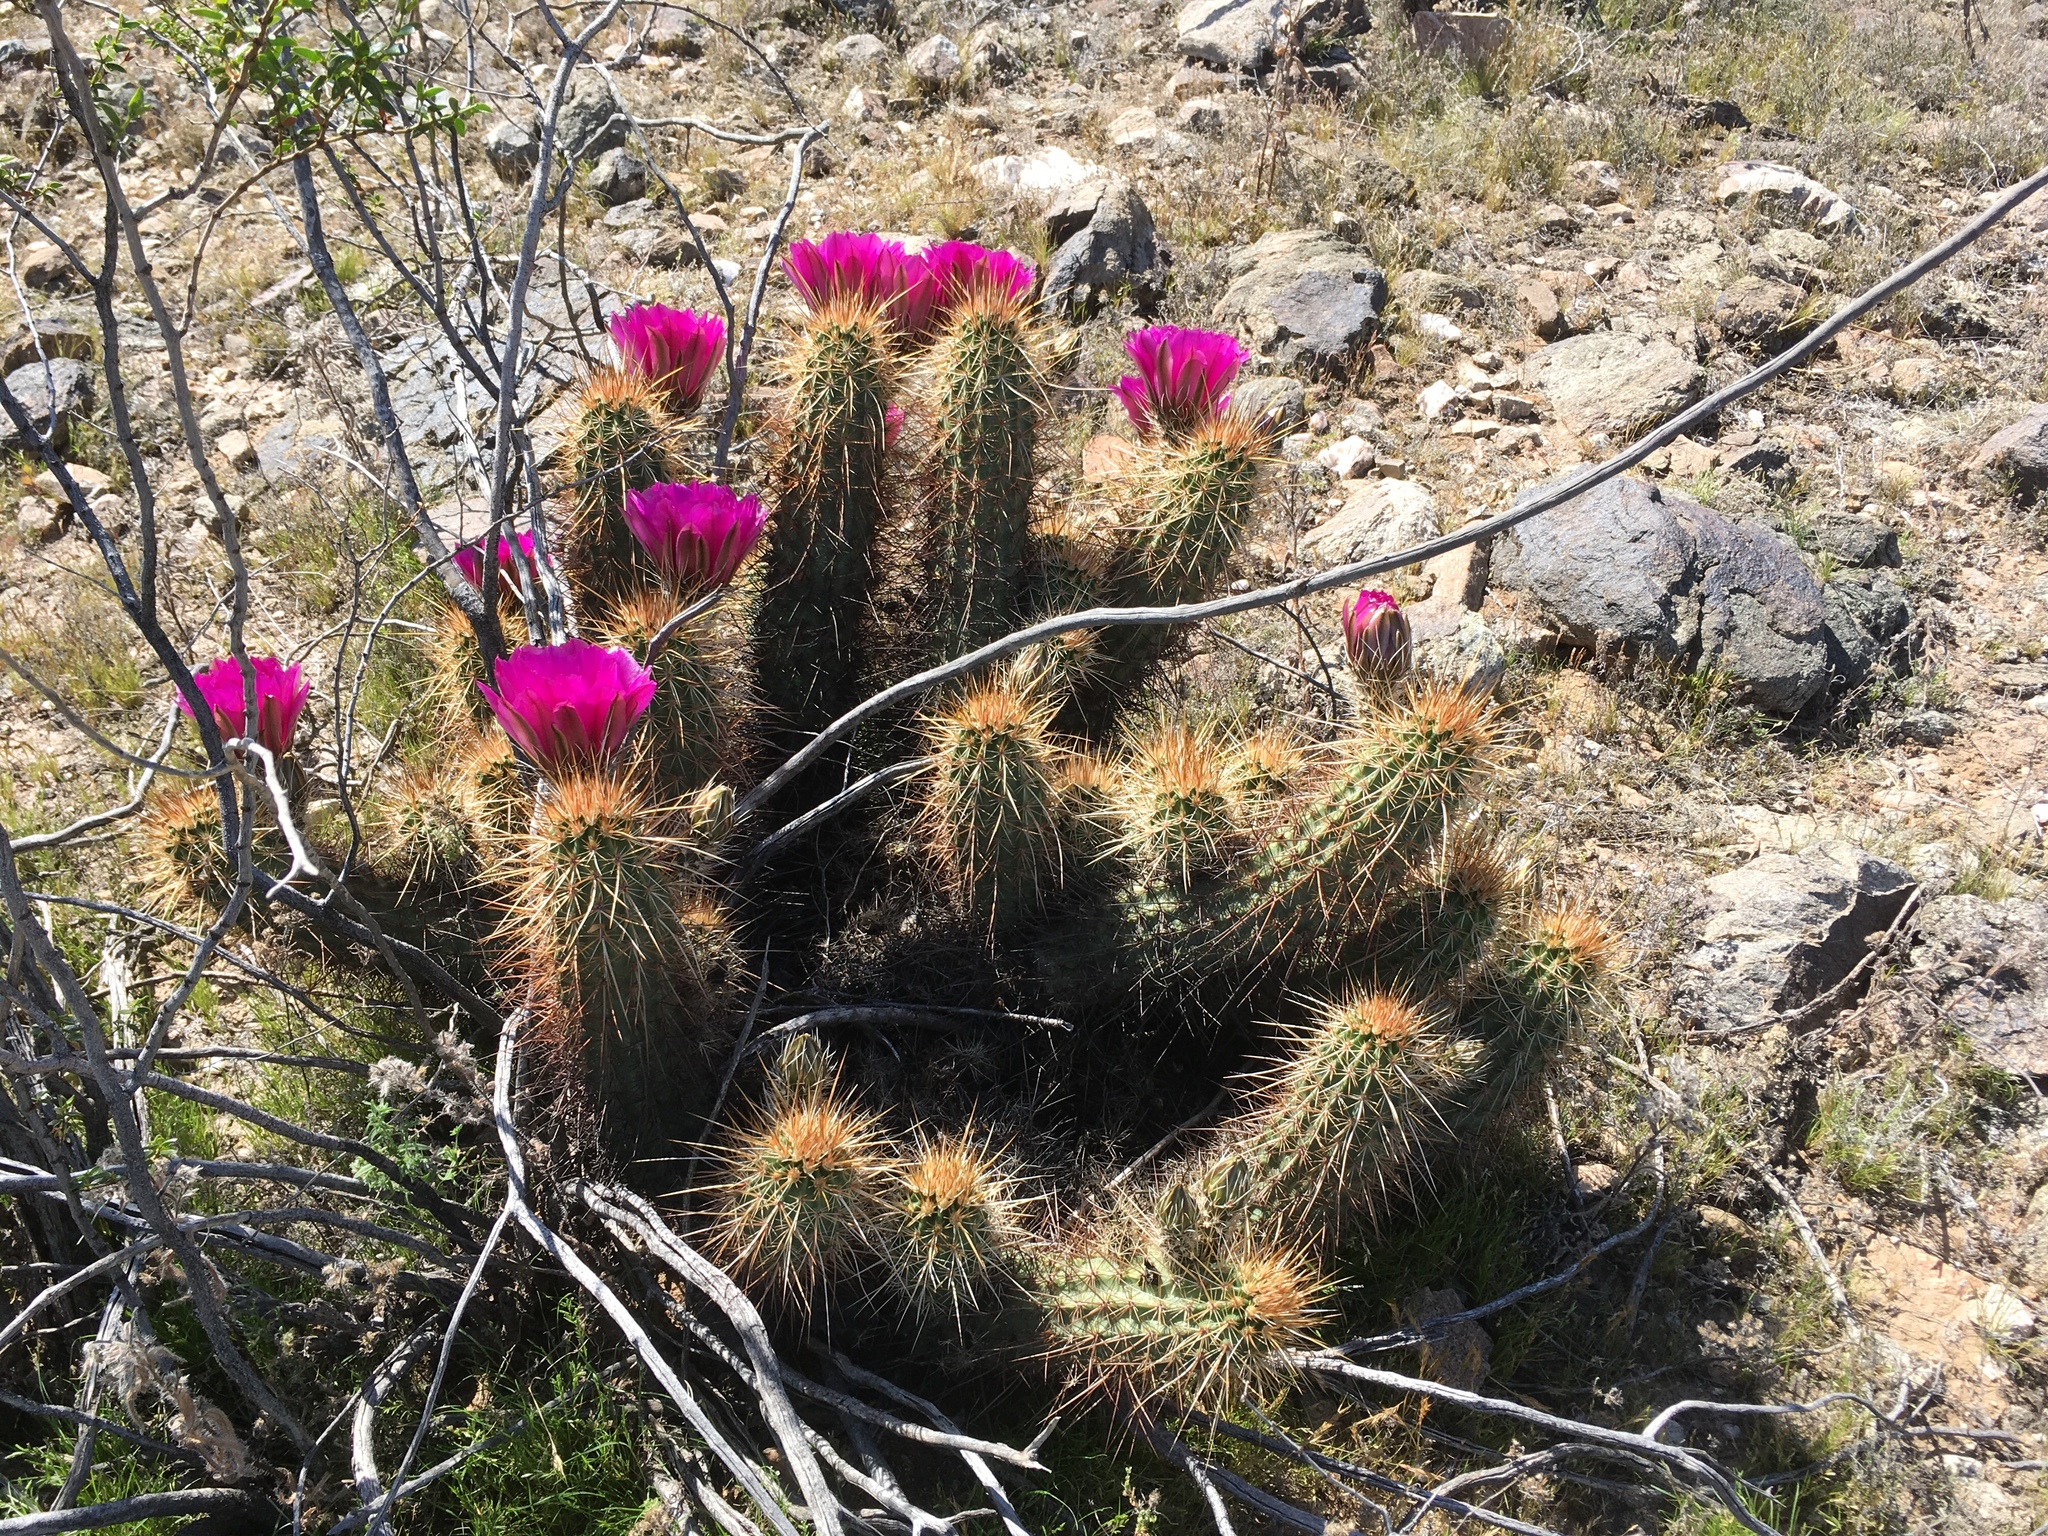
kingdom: Plantae
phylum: Tracheophyta
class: Magnoliopsida
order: Caryophyllales
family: Cactaceae
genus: Echinocereus
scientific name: Echinocereus engelmannii
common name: Engelmann's hedgehog cactus
